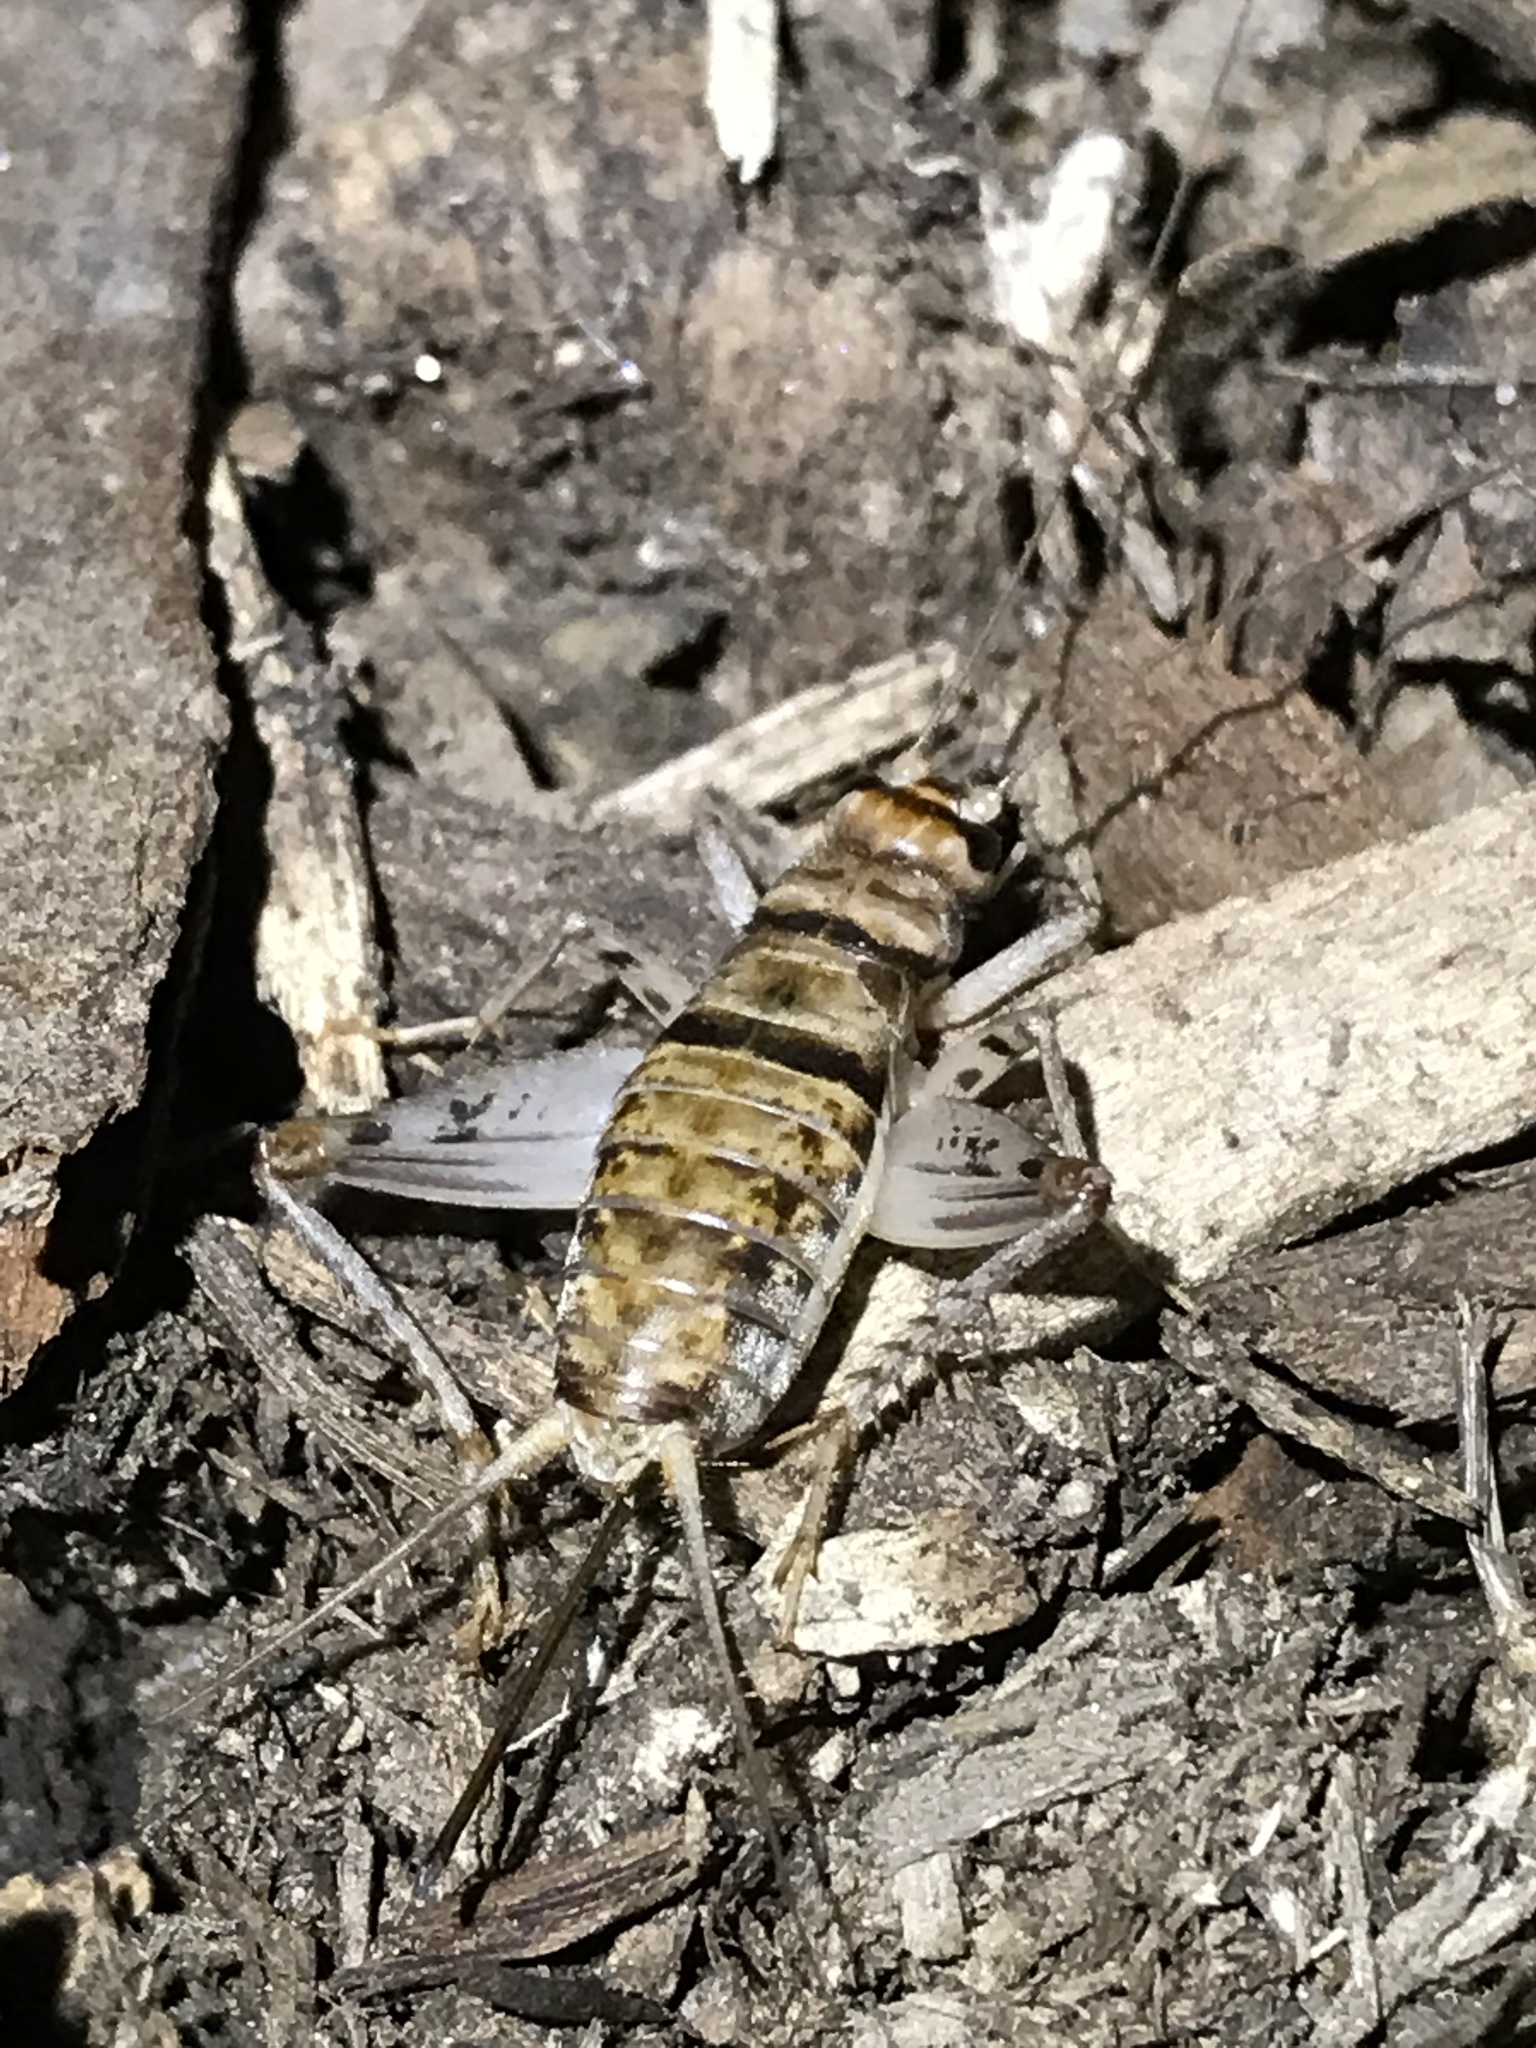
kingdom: Animalia
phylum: Arthropoda
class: Insecta
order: Orthoptera
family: Gryllidae
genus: Gryllodes
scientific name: Gryllodes sigillatus
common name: Tropical house cricket
